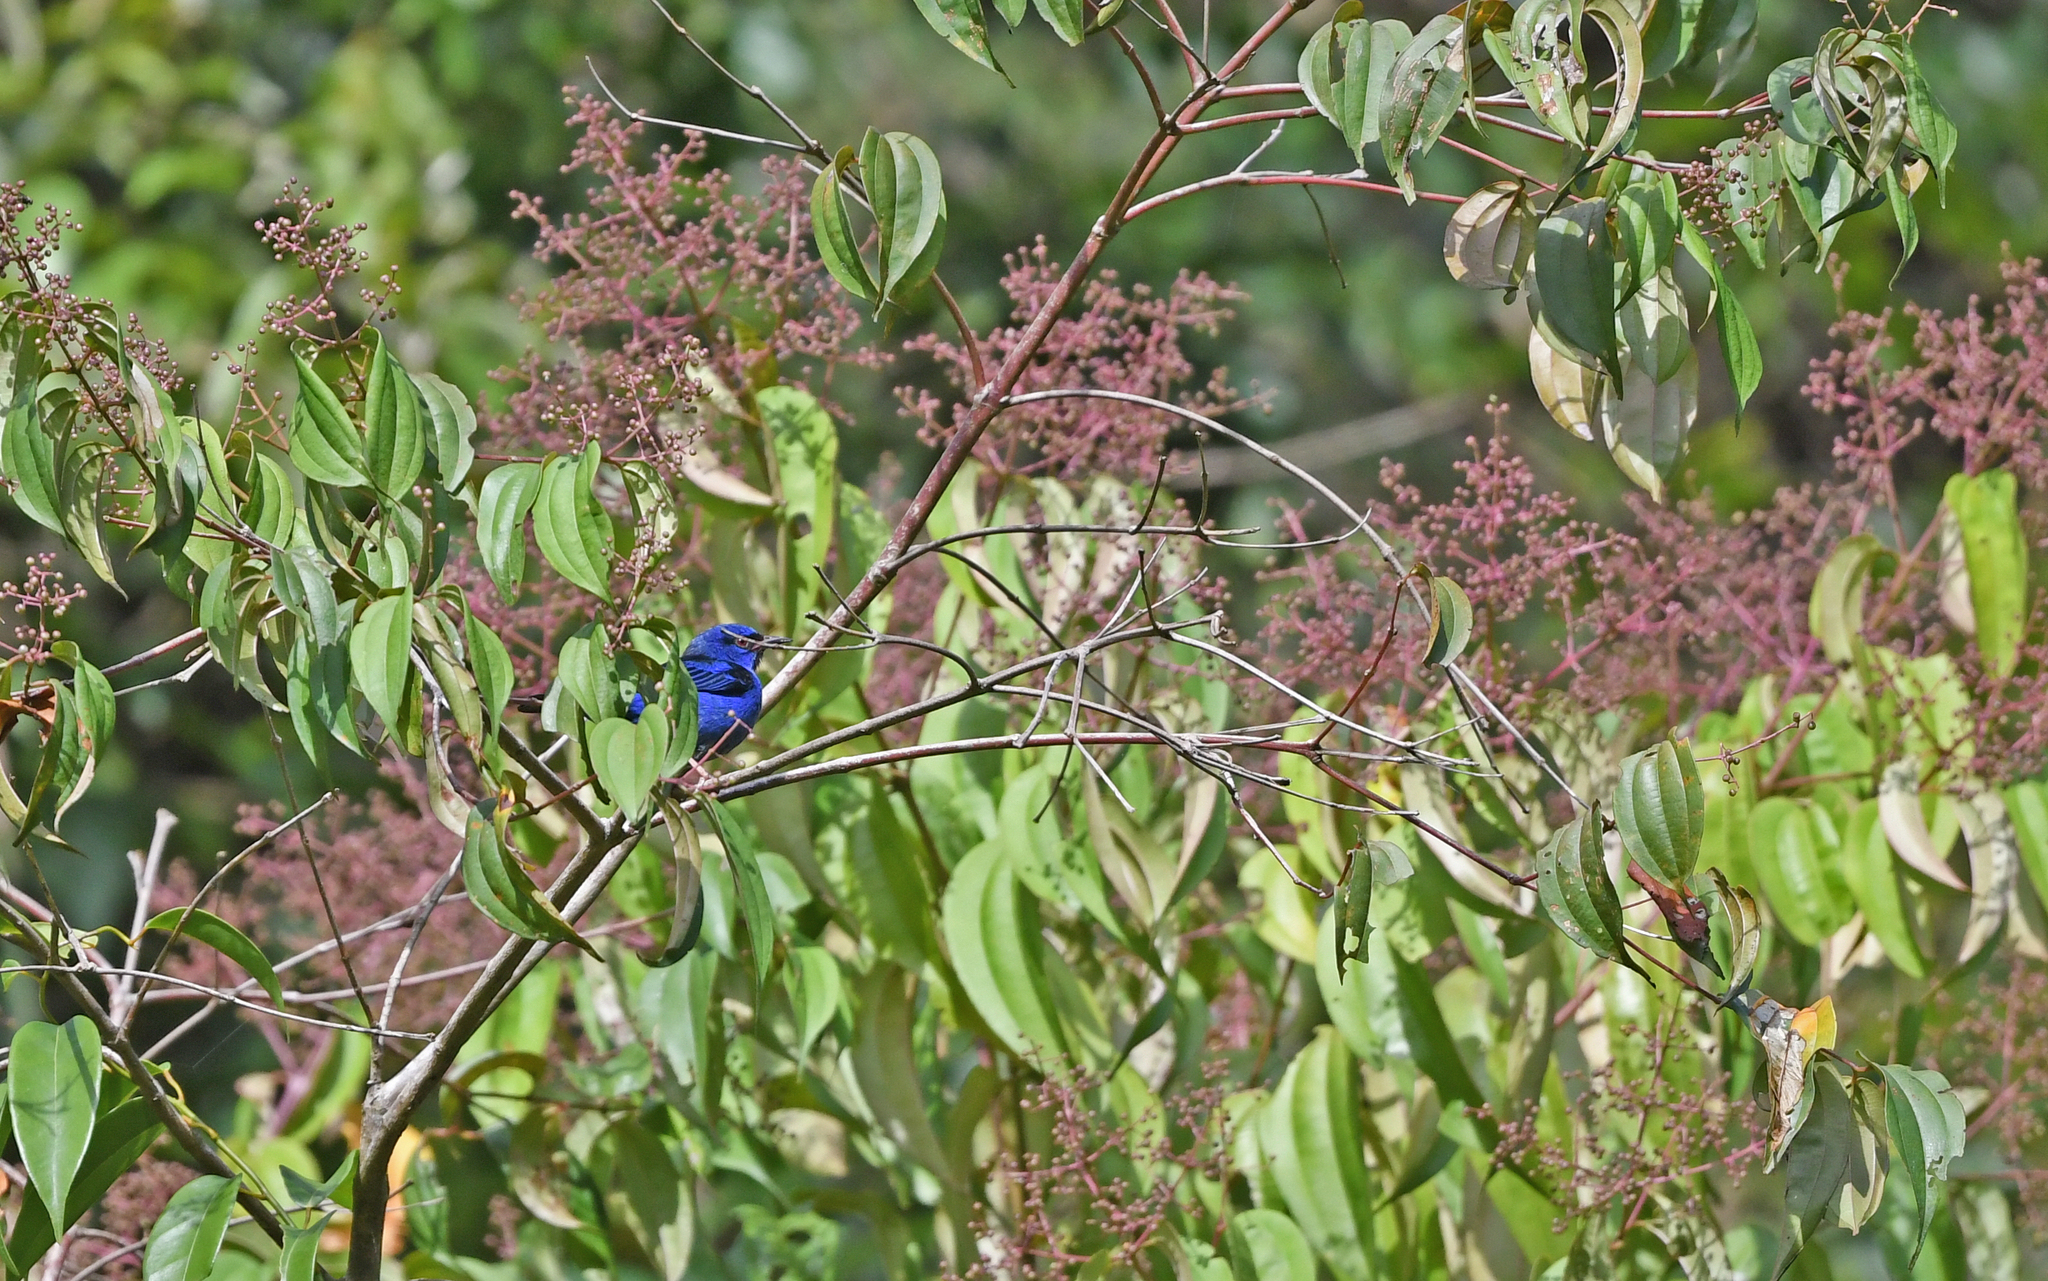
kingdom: Animalia
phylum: Chordata
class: Aves
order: Passeriformes
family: Thraupidae
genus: Dacnis
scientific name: Dacnis cayana
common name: Blue dacnis
